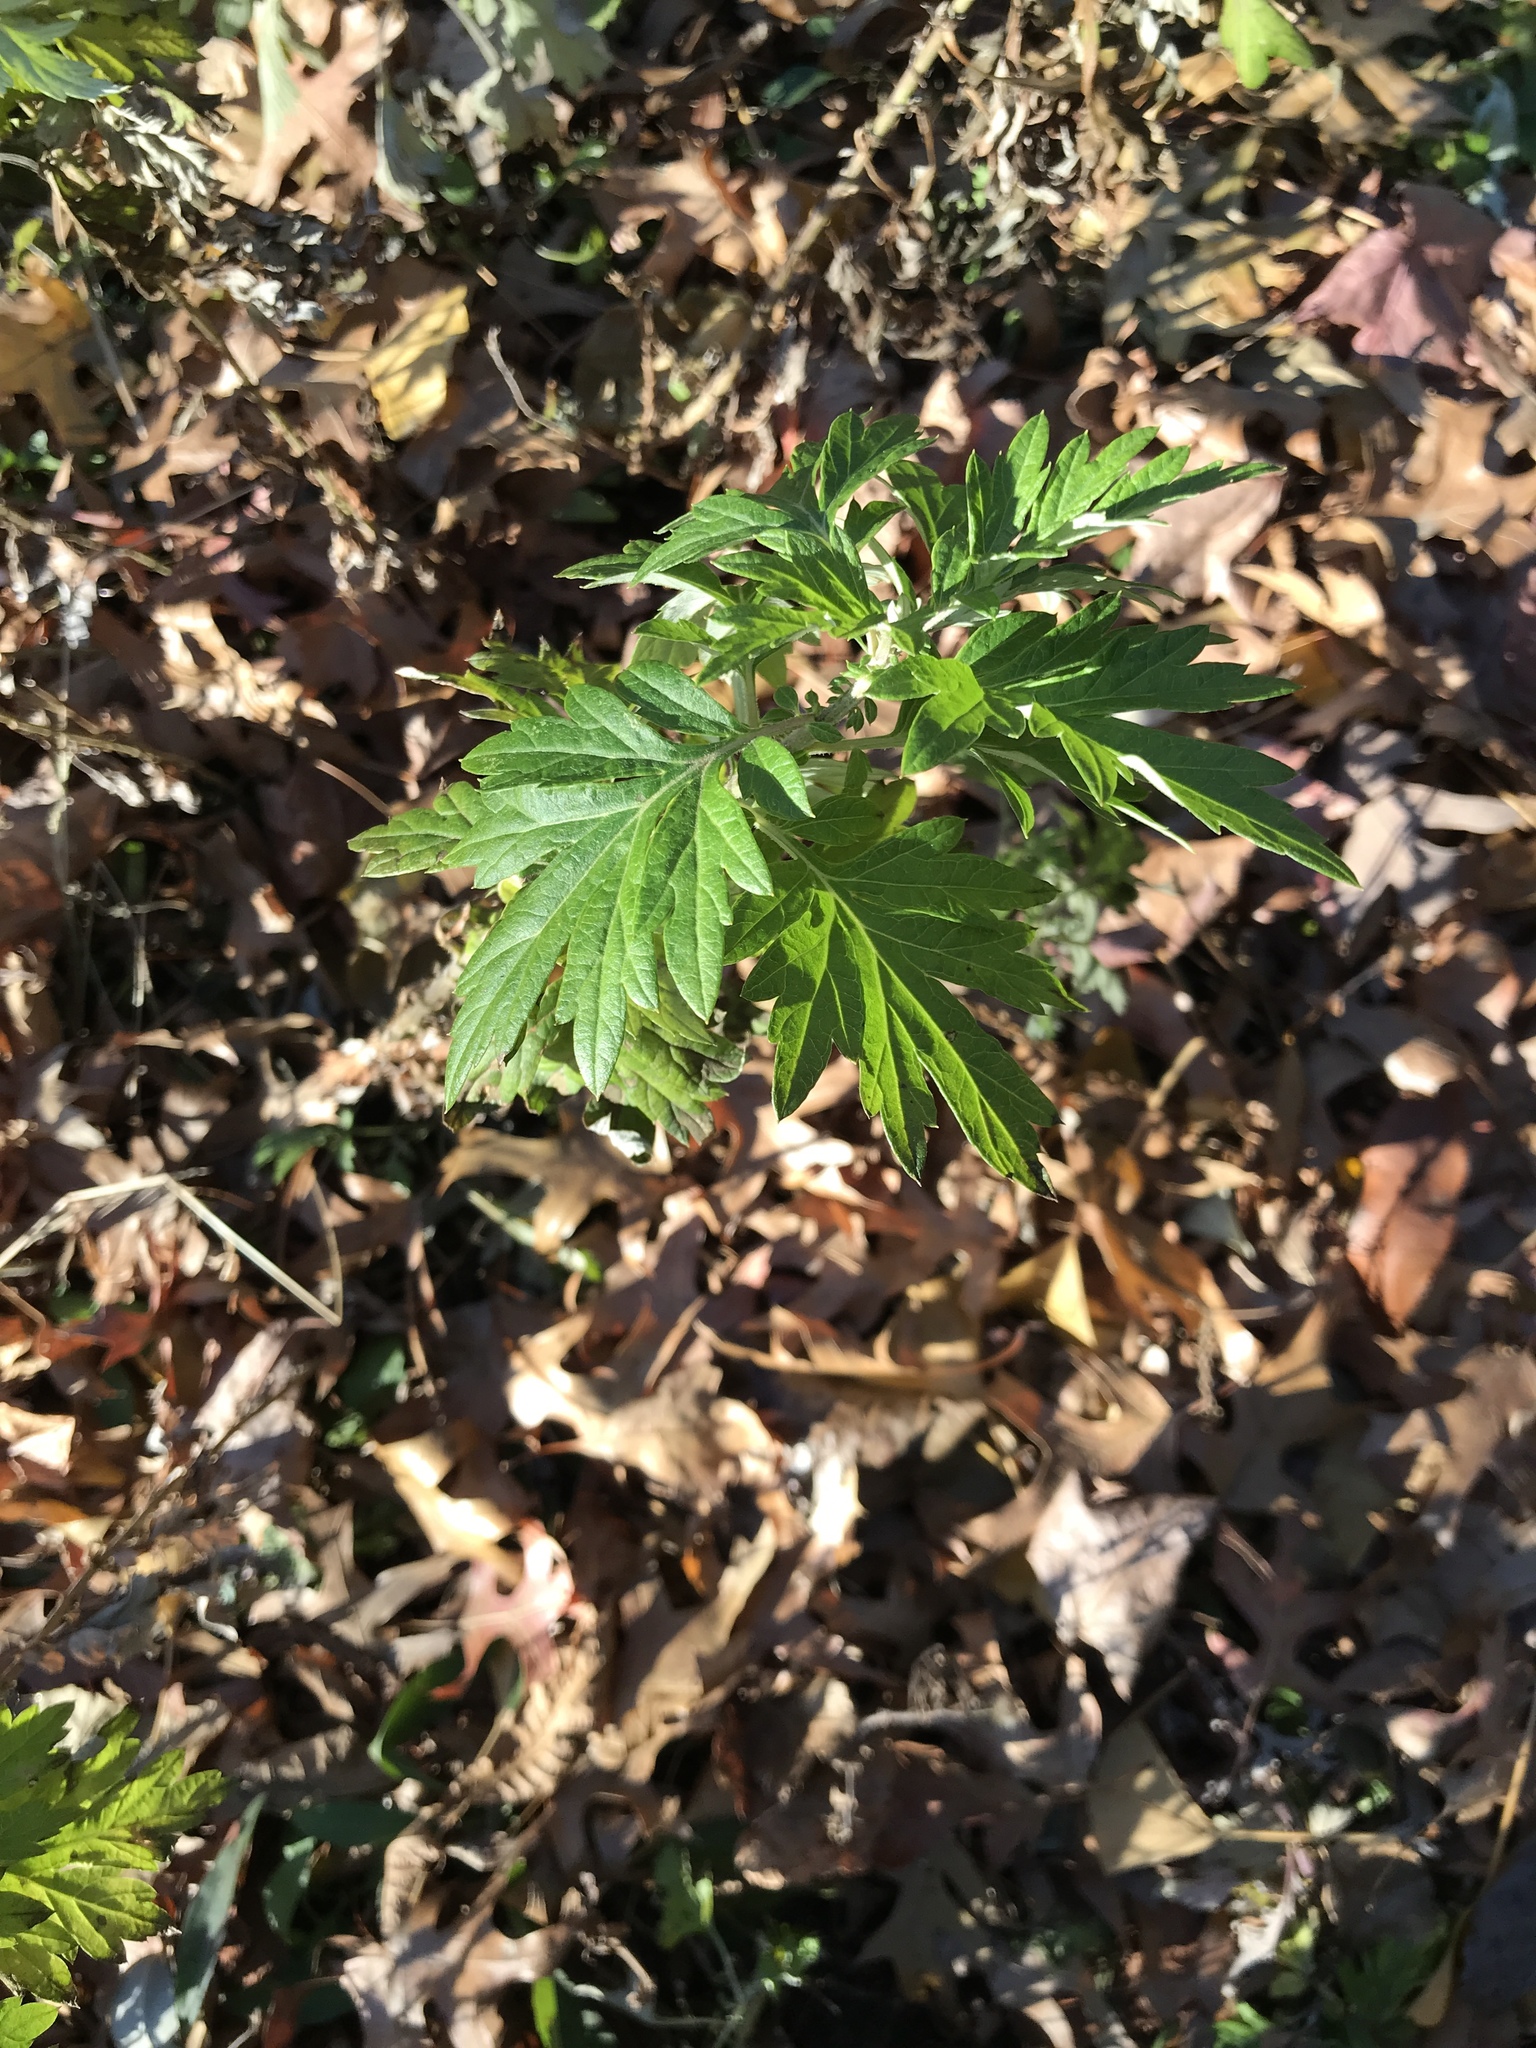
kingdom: Plantae
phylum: Tracheophyta
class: Magnoliopsida
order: Asterales
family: Asteraceae
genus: Artemisia
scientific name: Artemisia vulgaris
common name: Mugwort
